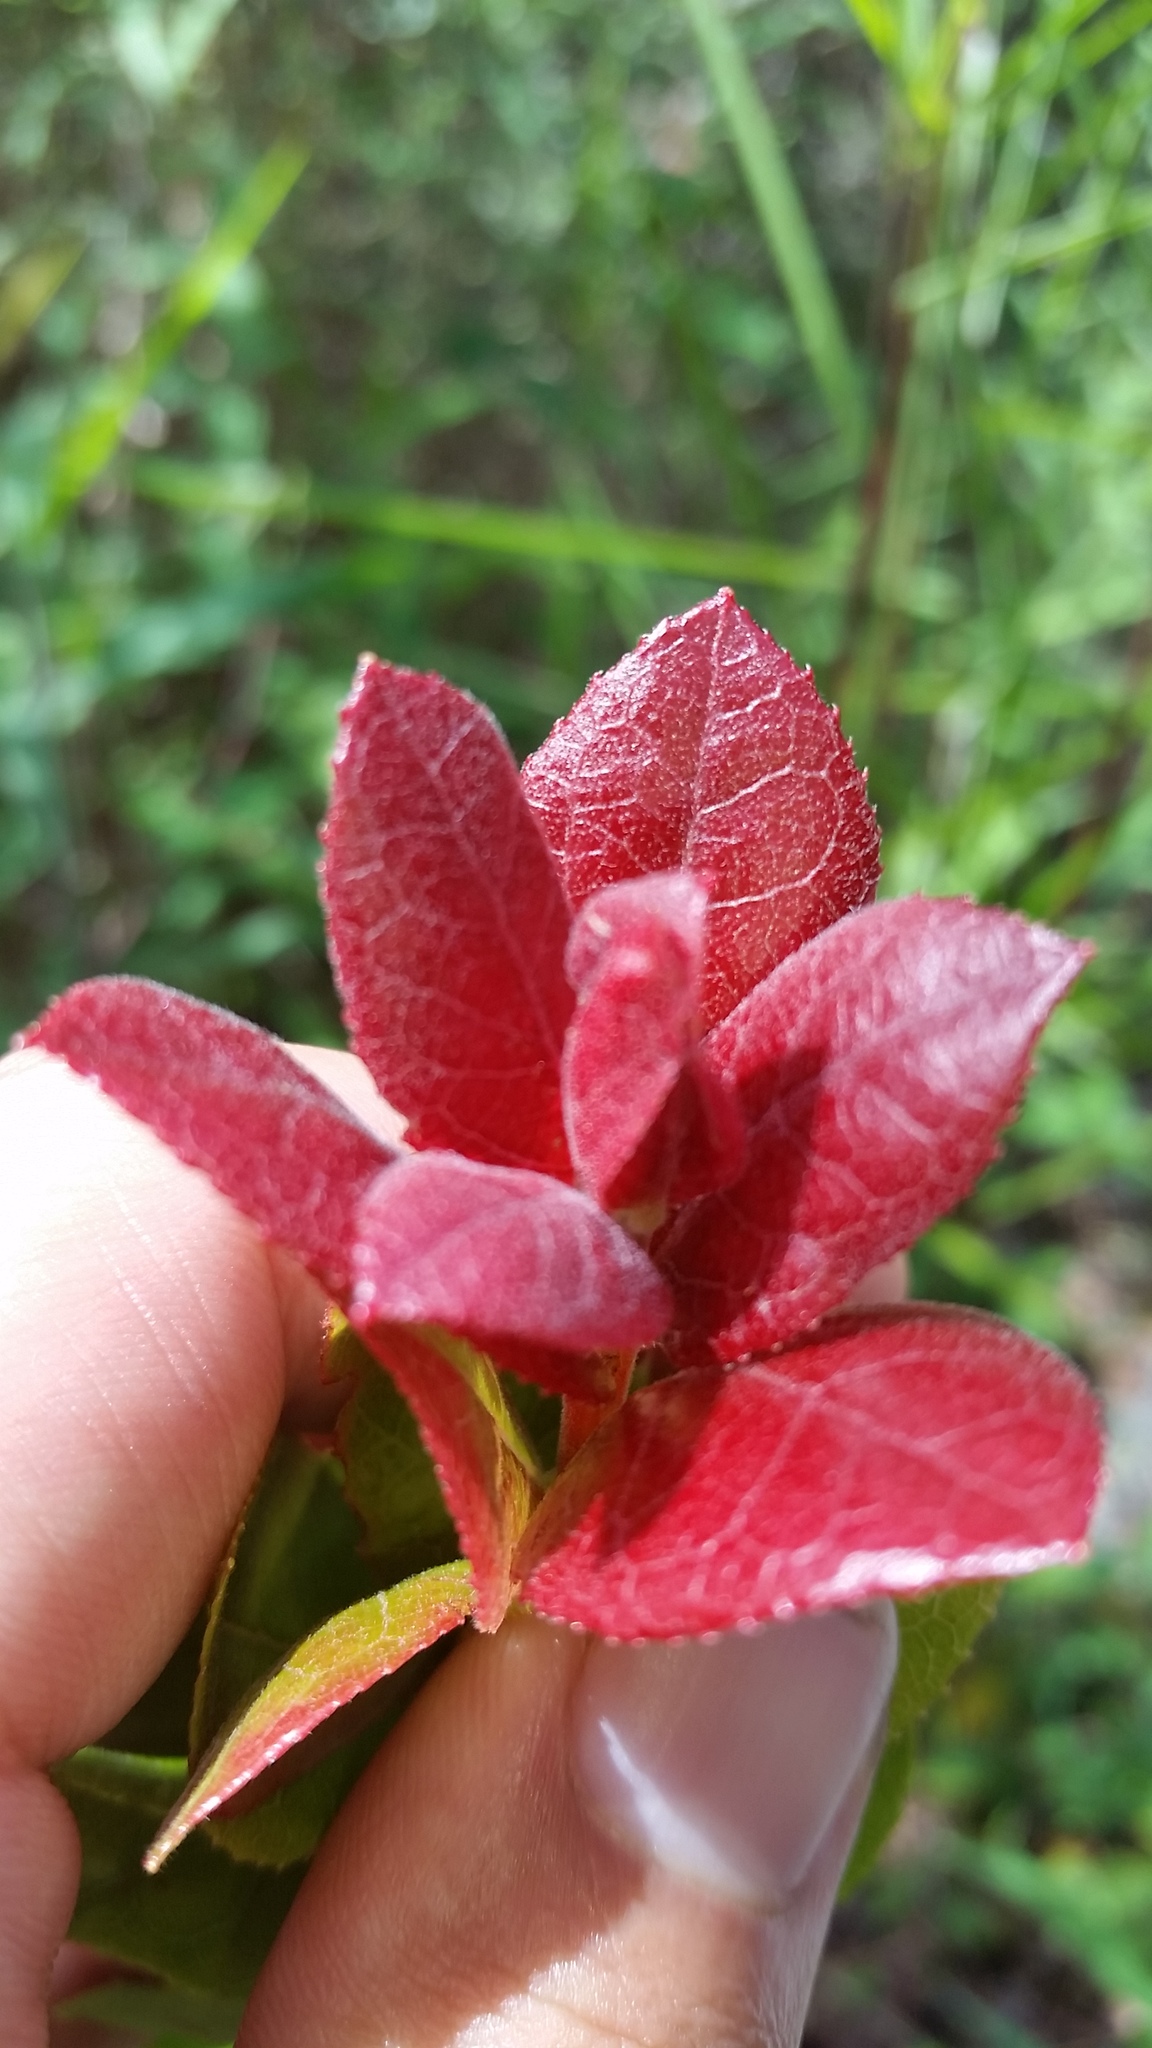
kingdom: Plantae
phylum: Tracheophyta
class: Magnoliopsida
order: Ericales
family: Ericaceae
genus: Vaccinium
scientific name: Vaccinium reticulatum
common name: Ohelo
